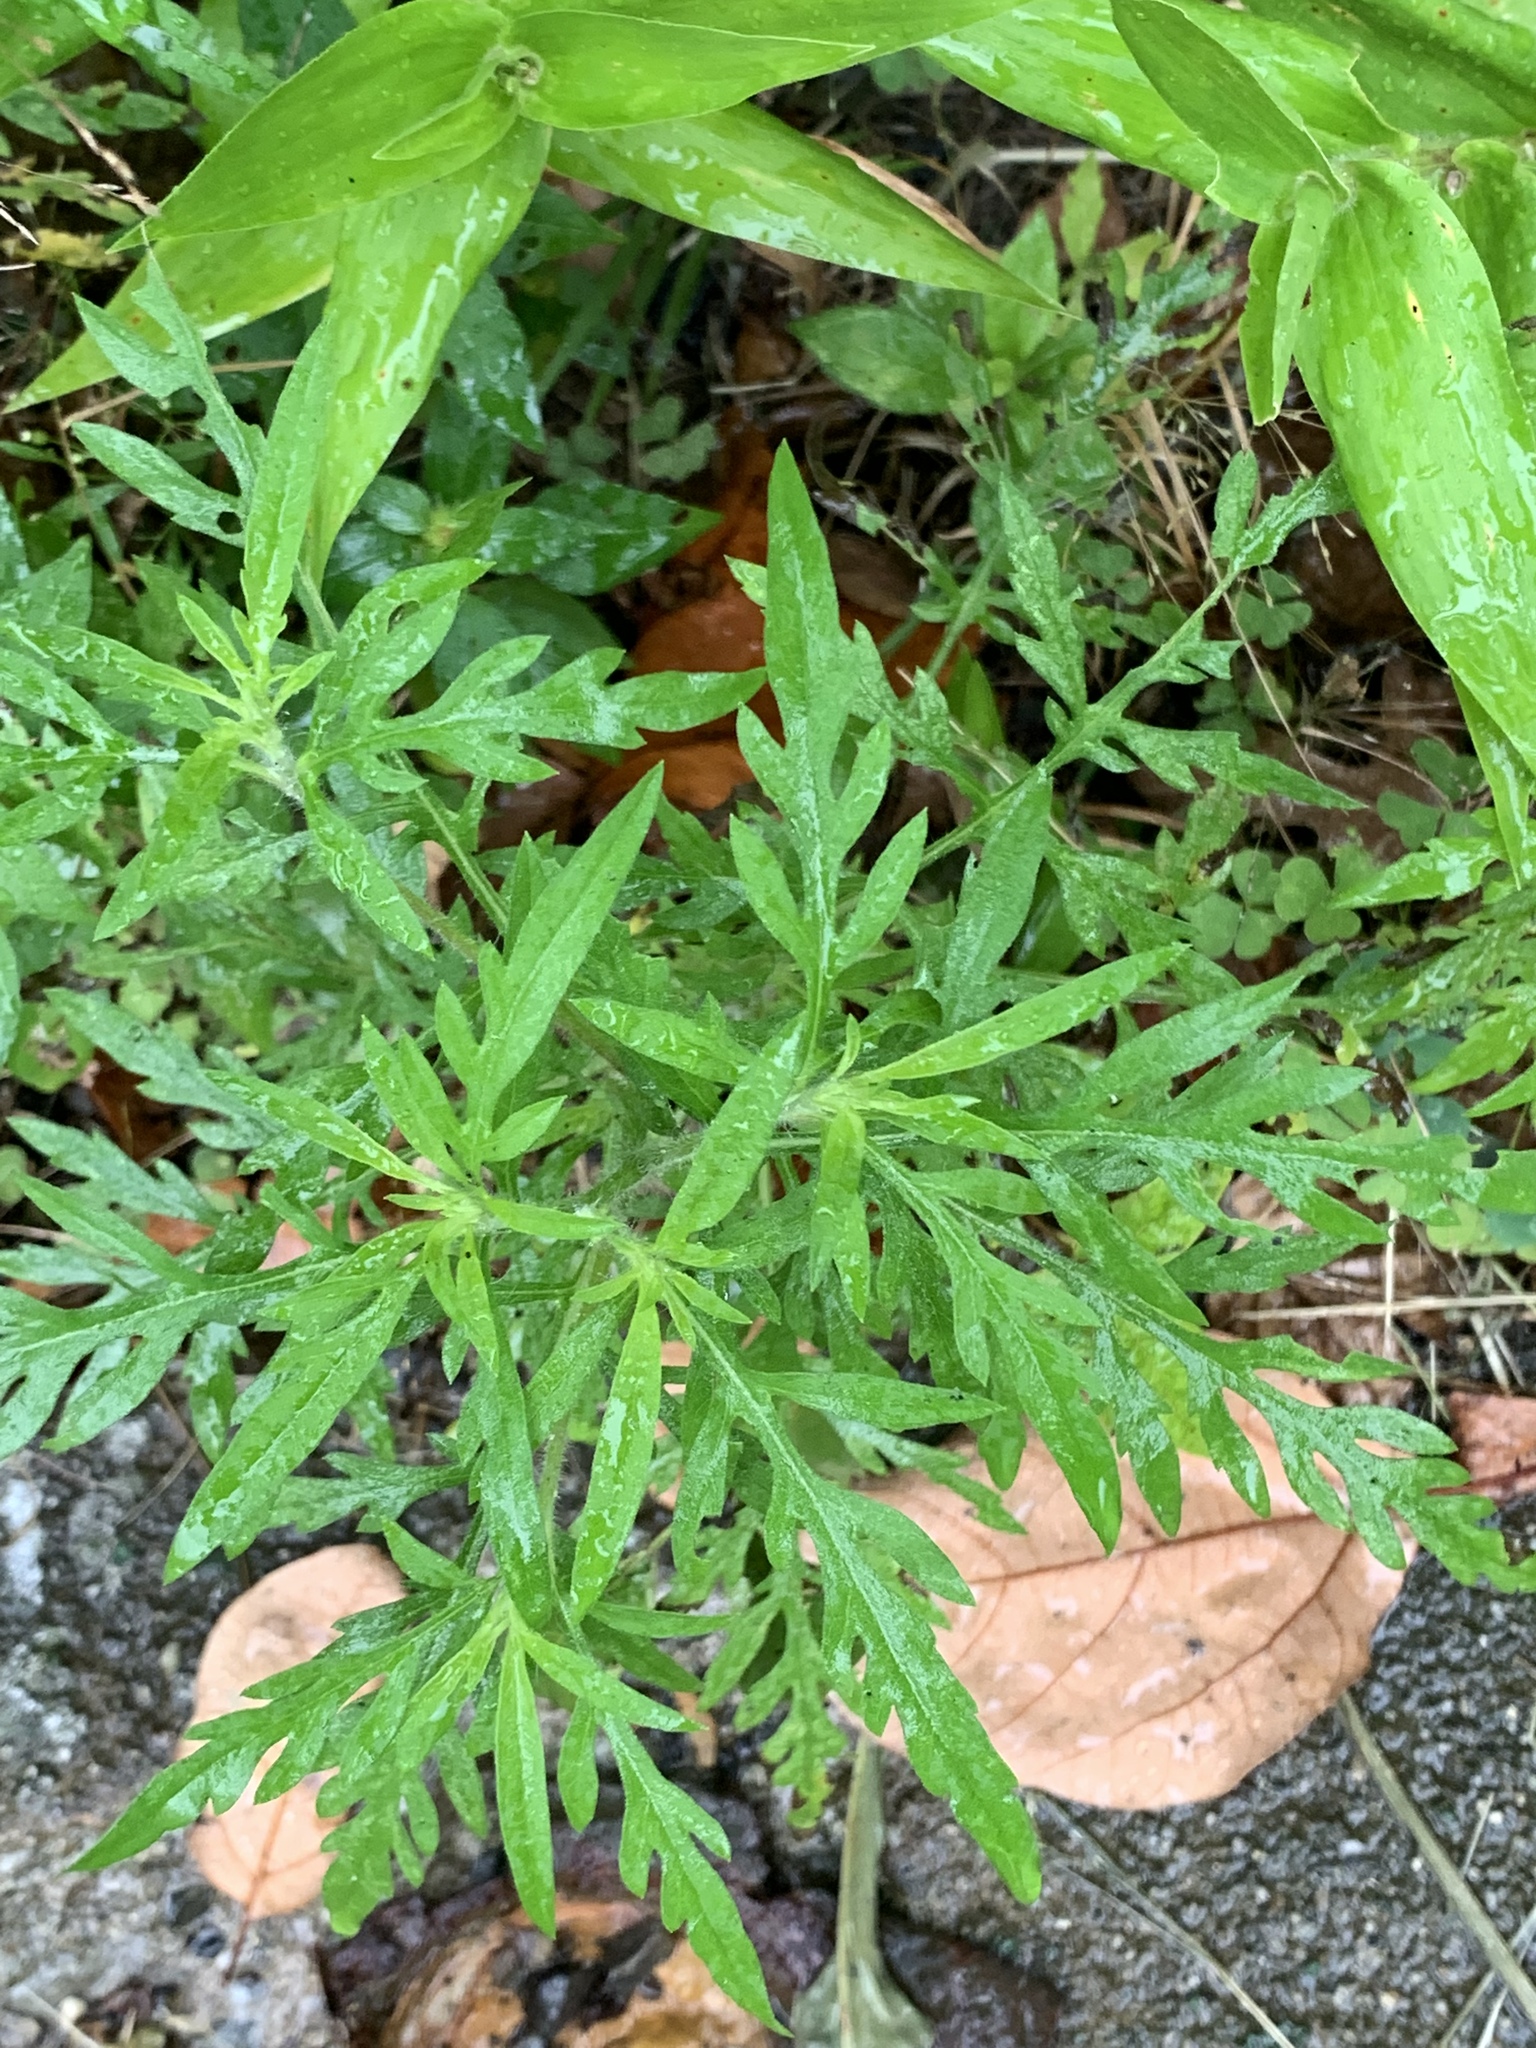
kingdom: Plantae
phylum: Tracheophyta
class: Magnoliopsida
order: Asterales
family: Asteraceae
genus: Ambrosia
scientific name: Ambrosia artemisiifolia
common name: Annual ragweed
